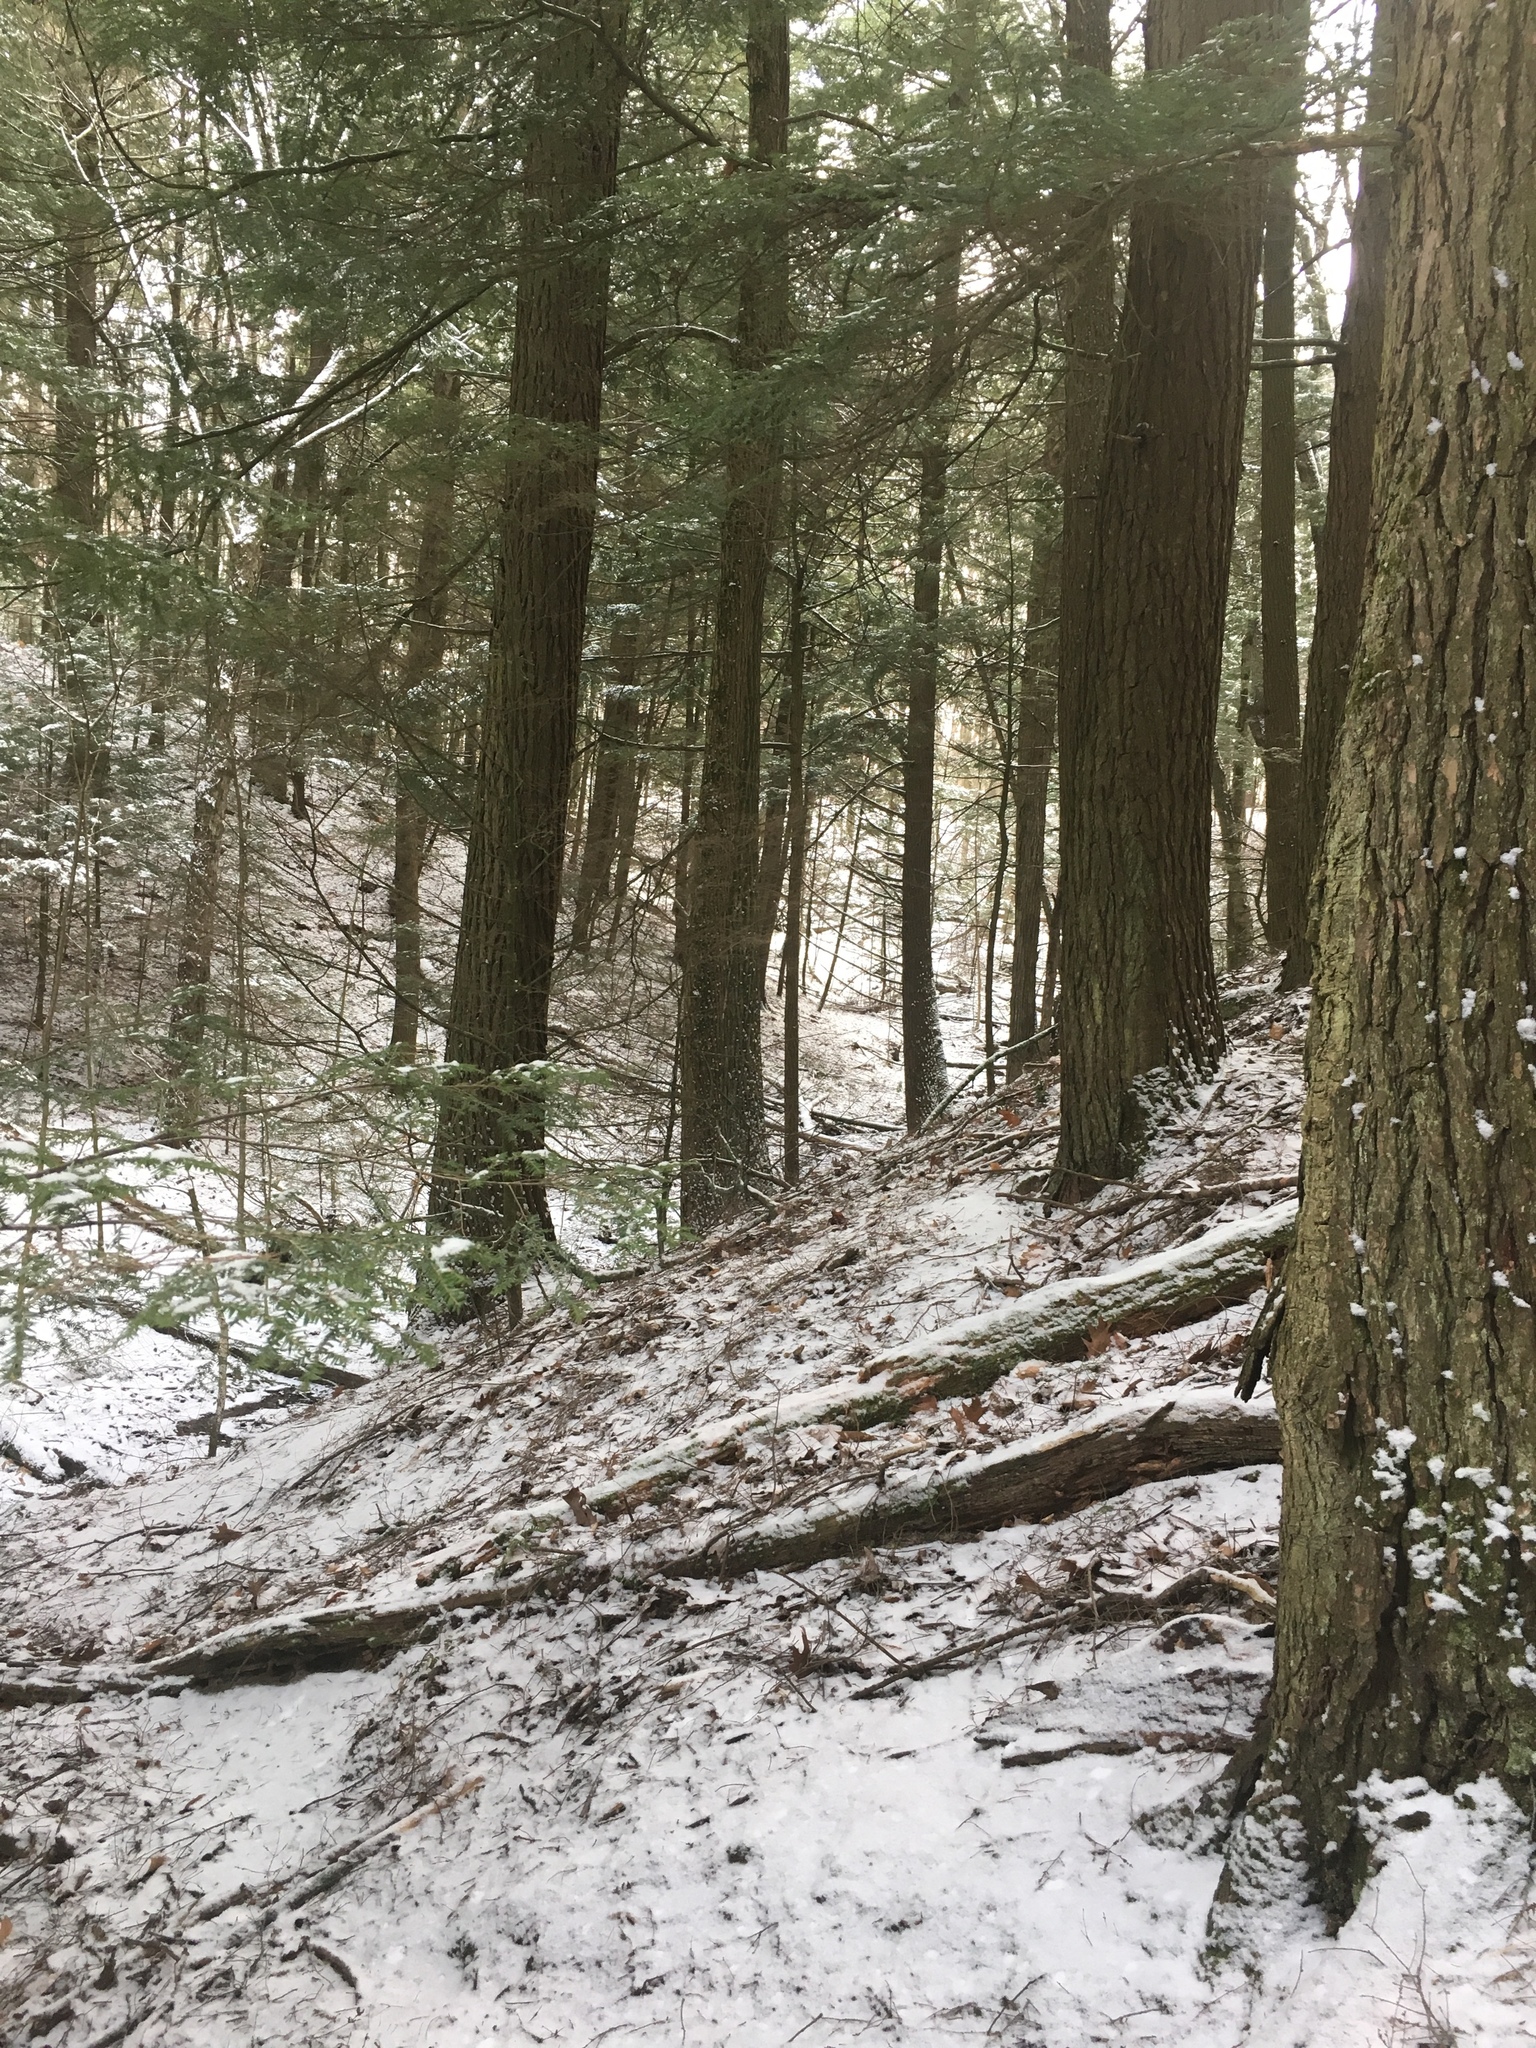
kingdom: Plantae
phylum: Tracheophyta
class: Pinopsida
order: Pinales
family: Pinaceae
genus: Tsuga
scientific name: Tsuga canadensis
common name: Eastern hemlock
